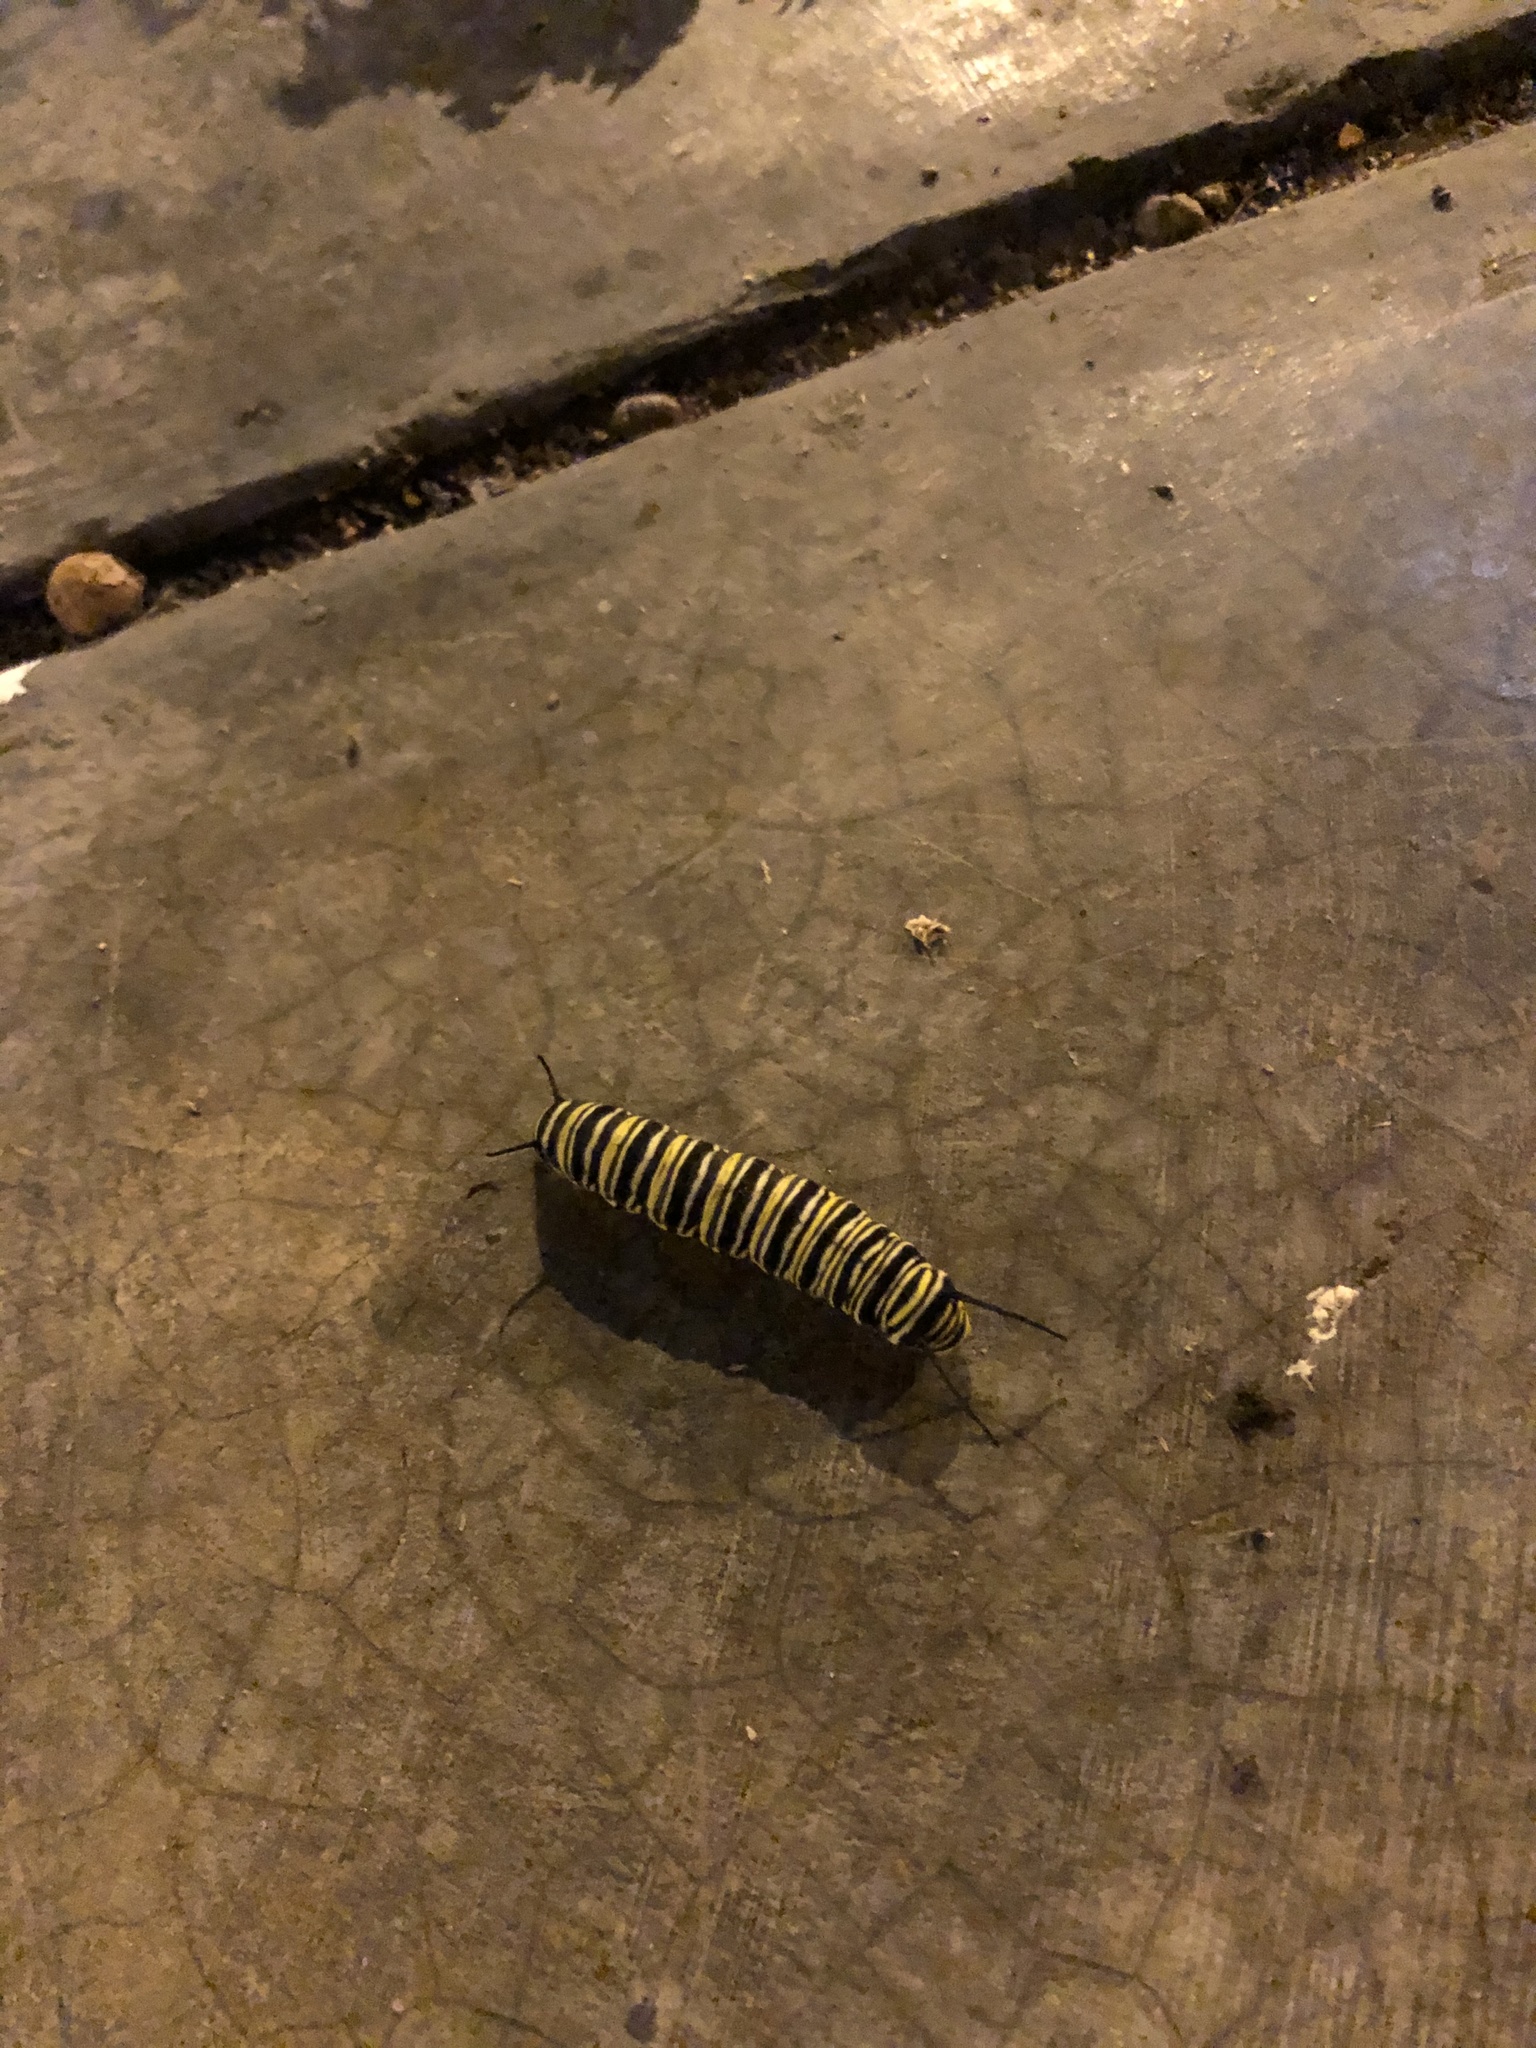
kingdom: Animalia
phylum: Arthropoda
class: Insecta
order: Lepidoptera
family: Nymphalidae
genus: Danaus
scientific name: Danaus plexippus
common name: Monarch
